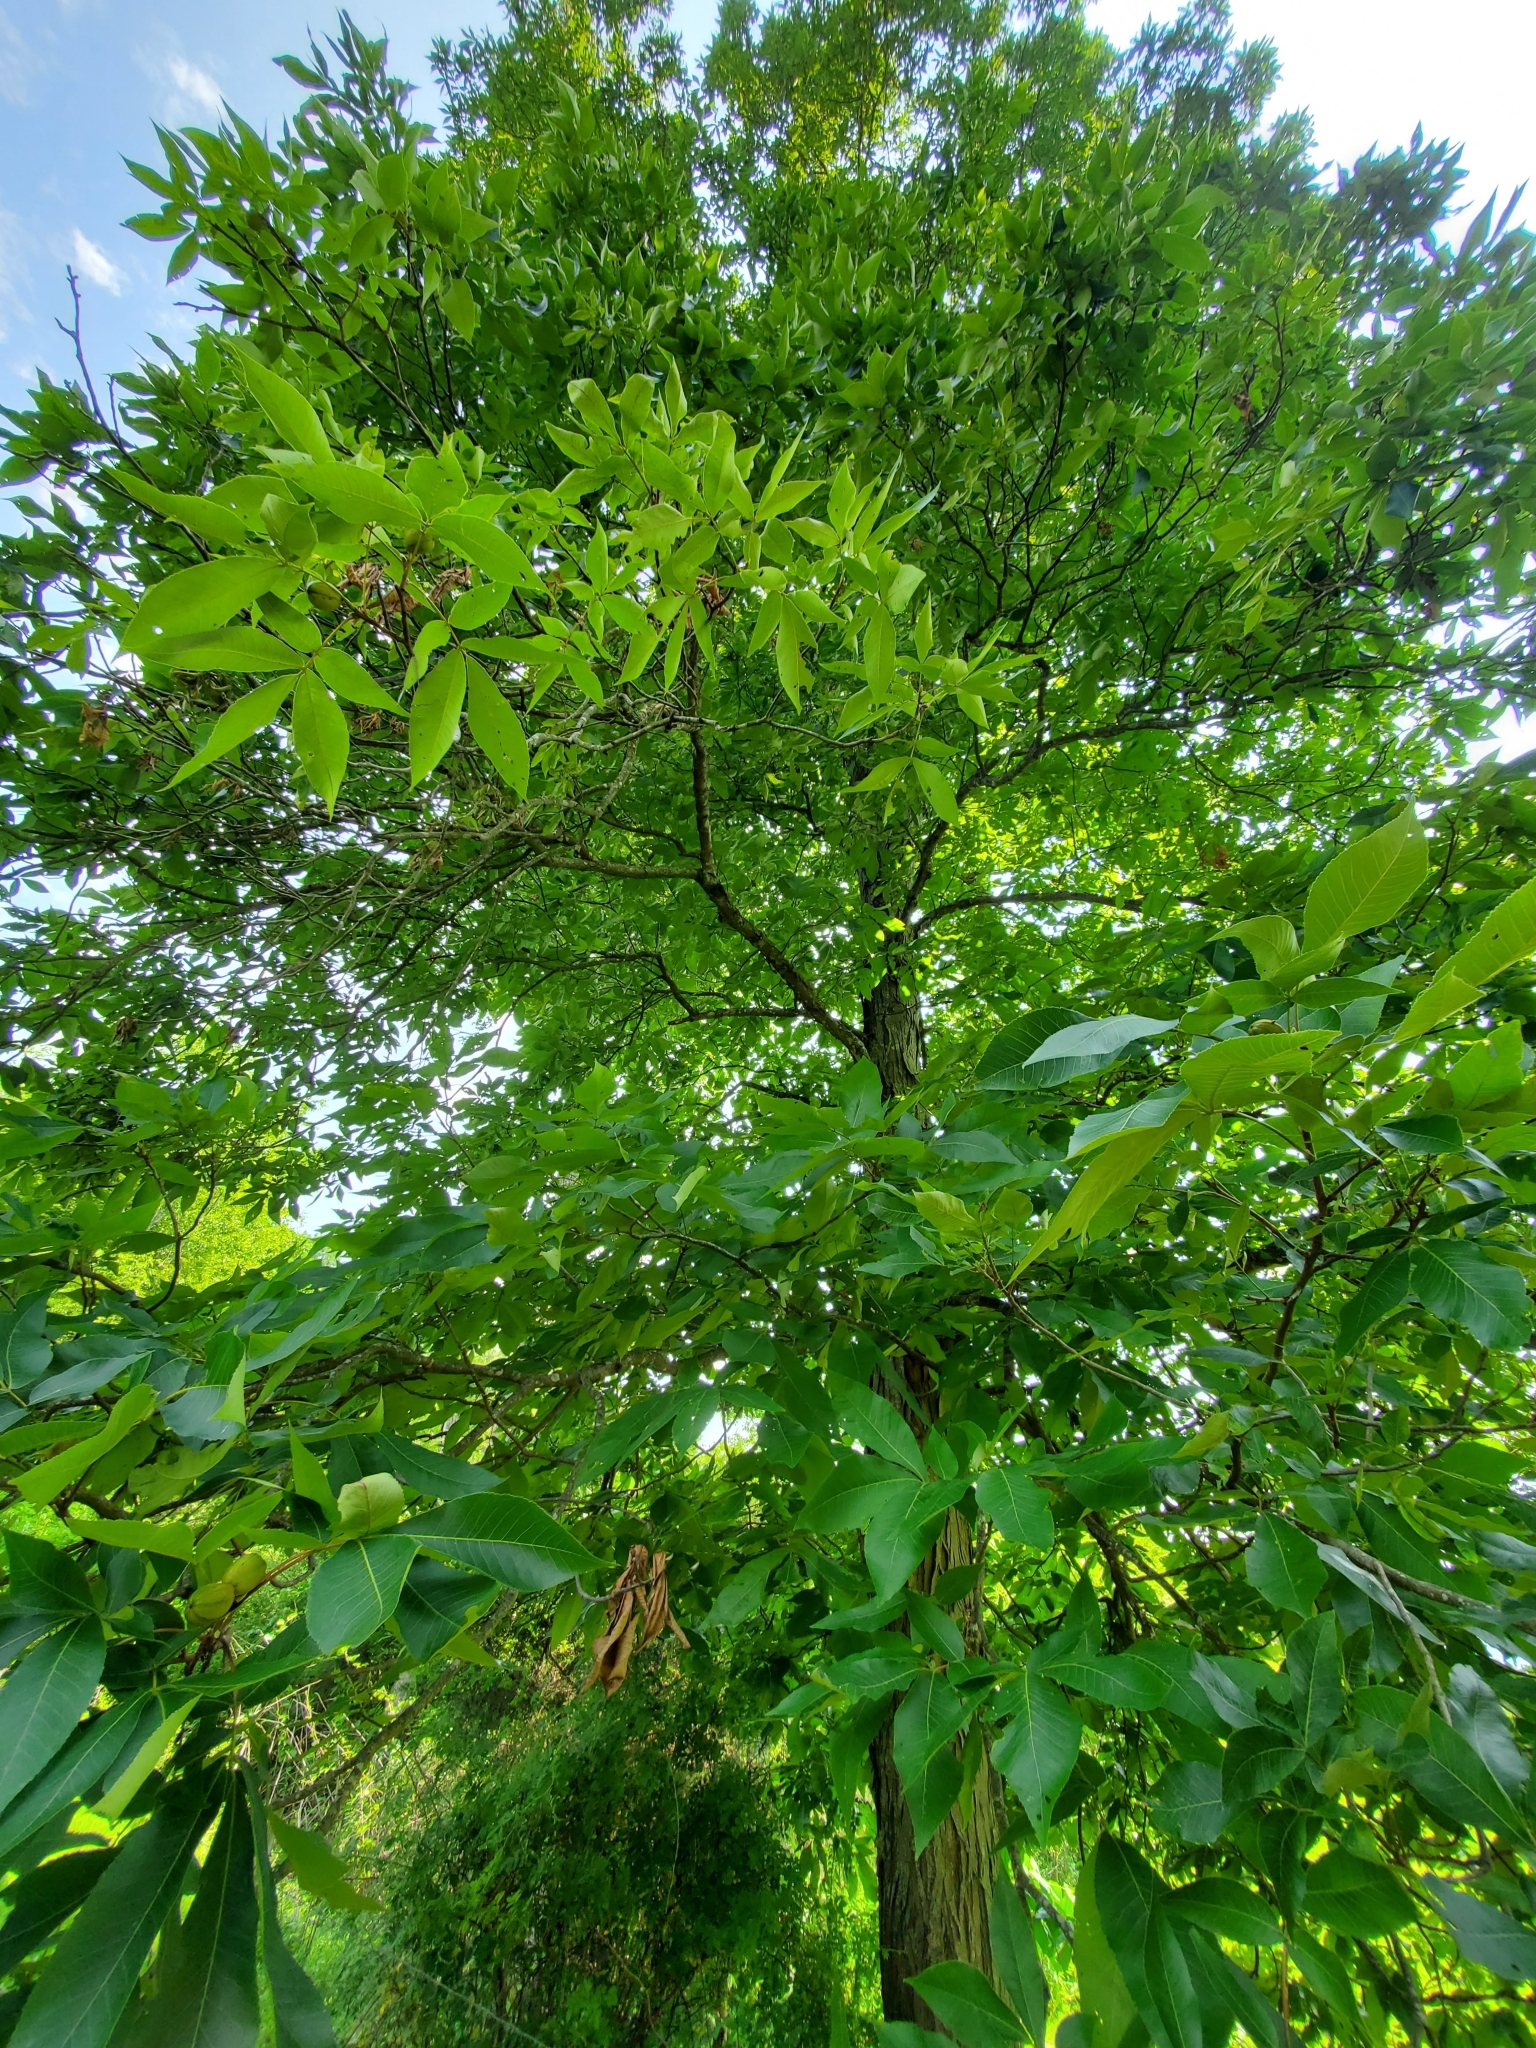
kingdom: Plantae
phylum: Tracheophyta
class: Magnoliopsida
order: Fagales
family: Juglandaceae
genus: Carya
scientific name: Carya ovata
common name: Shagbark hickory
